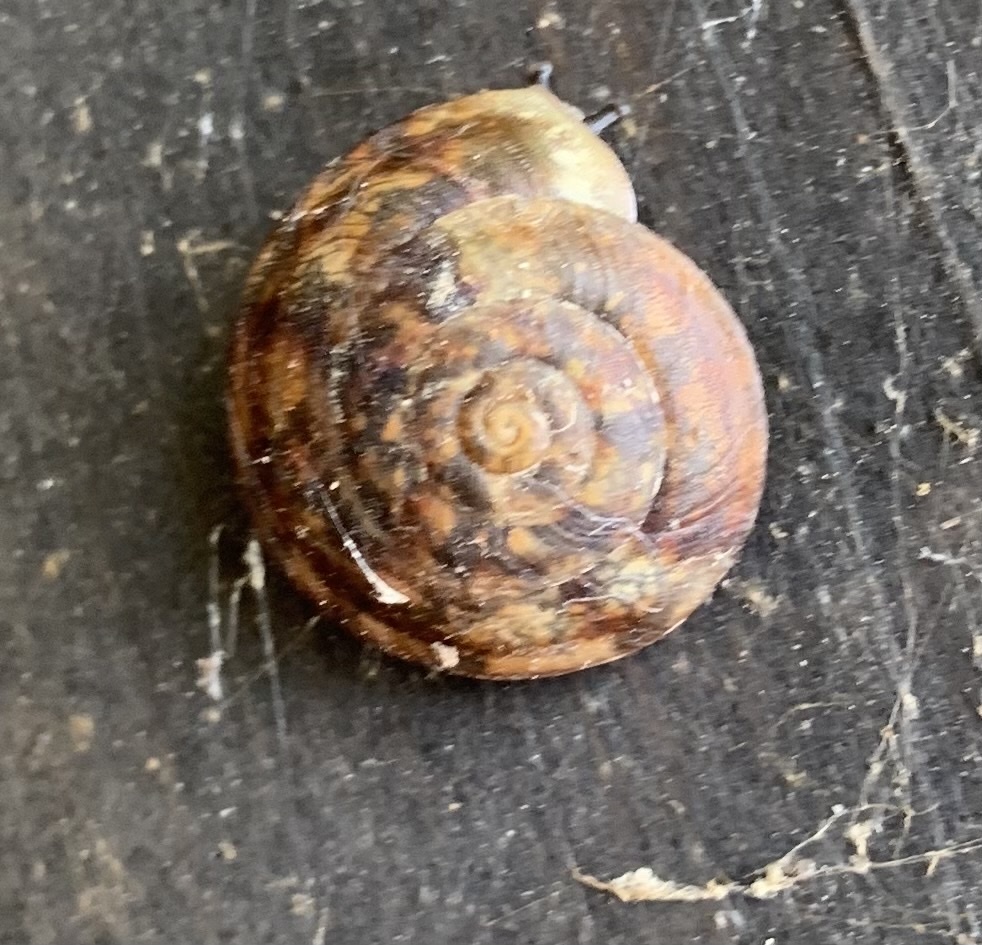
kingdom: Animalia
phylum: Mollusca
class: Gastropoda
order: Stylommatophora
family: Helicidae
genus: Helicigona
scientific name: Helicigona lapicida
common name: Lapidary snail
